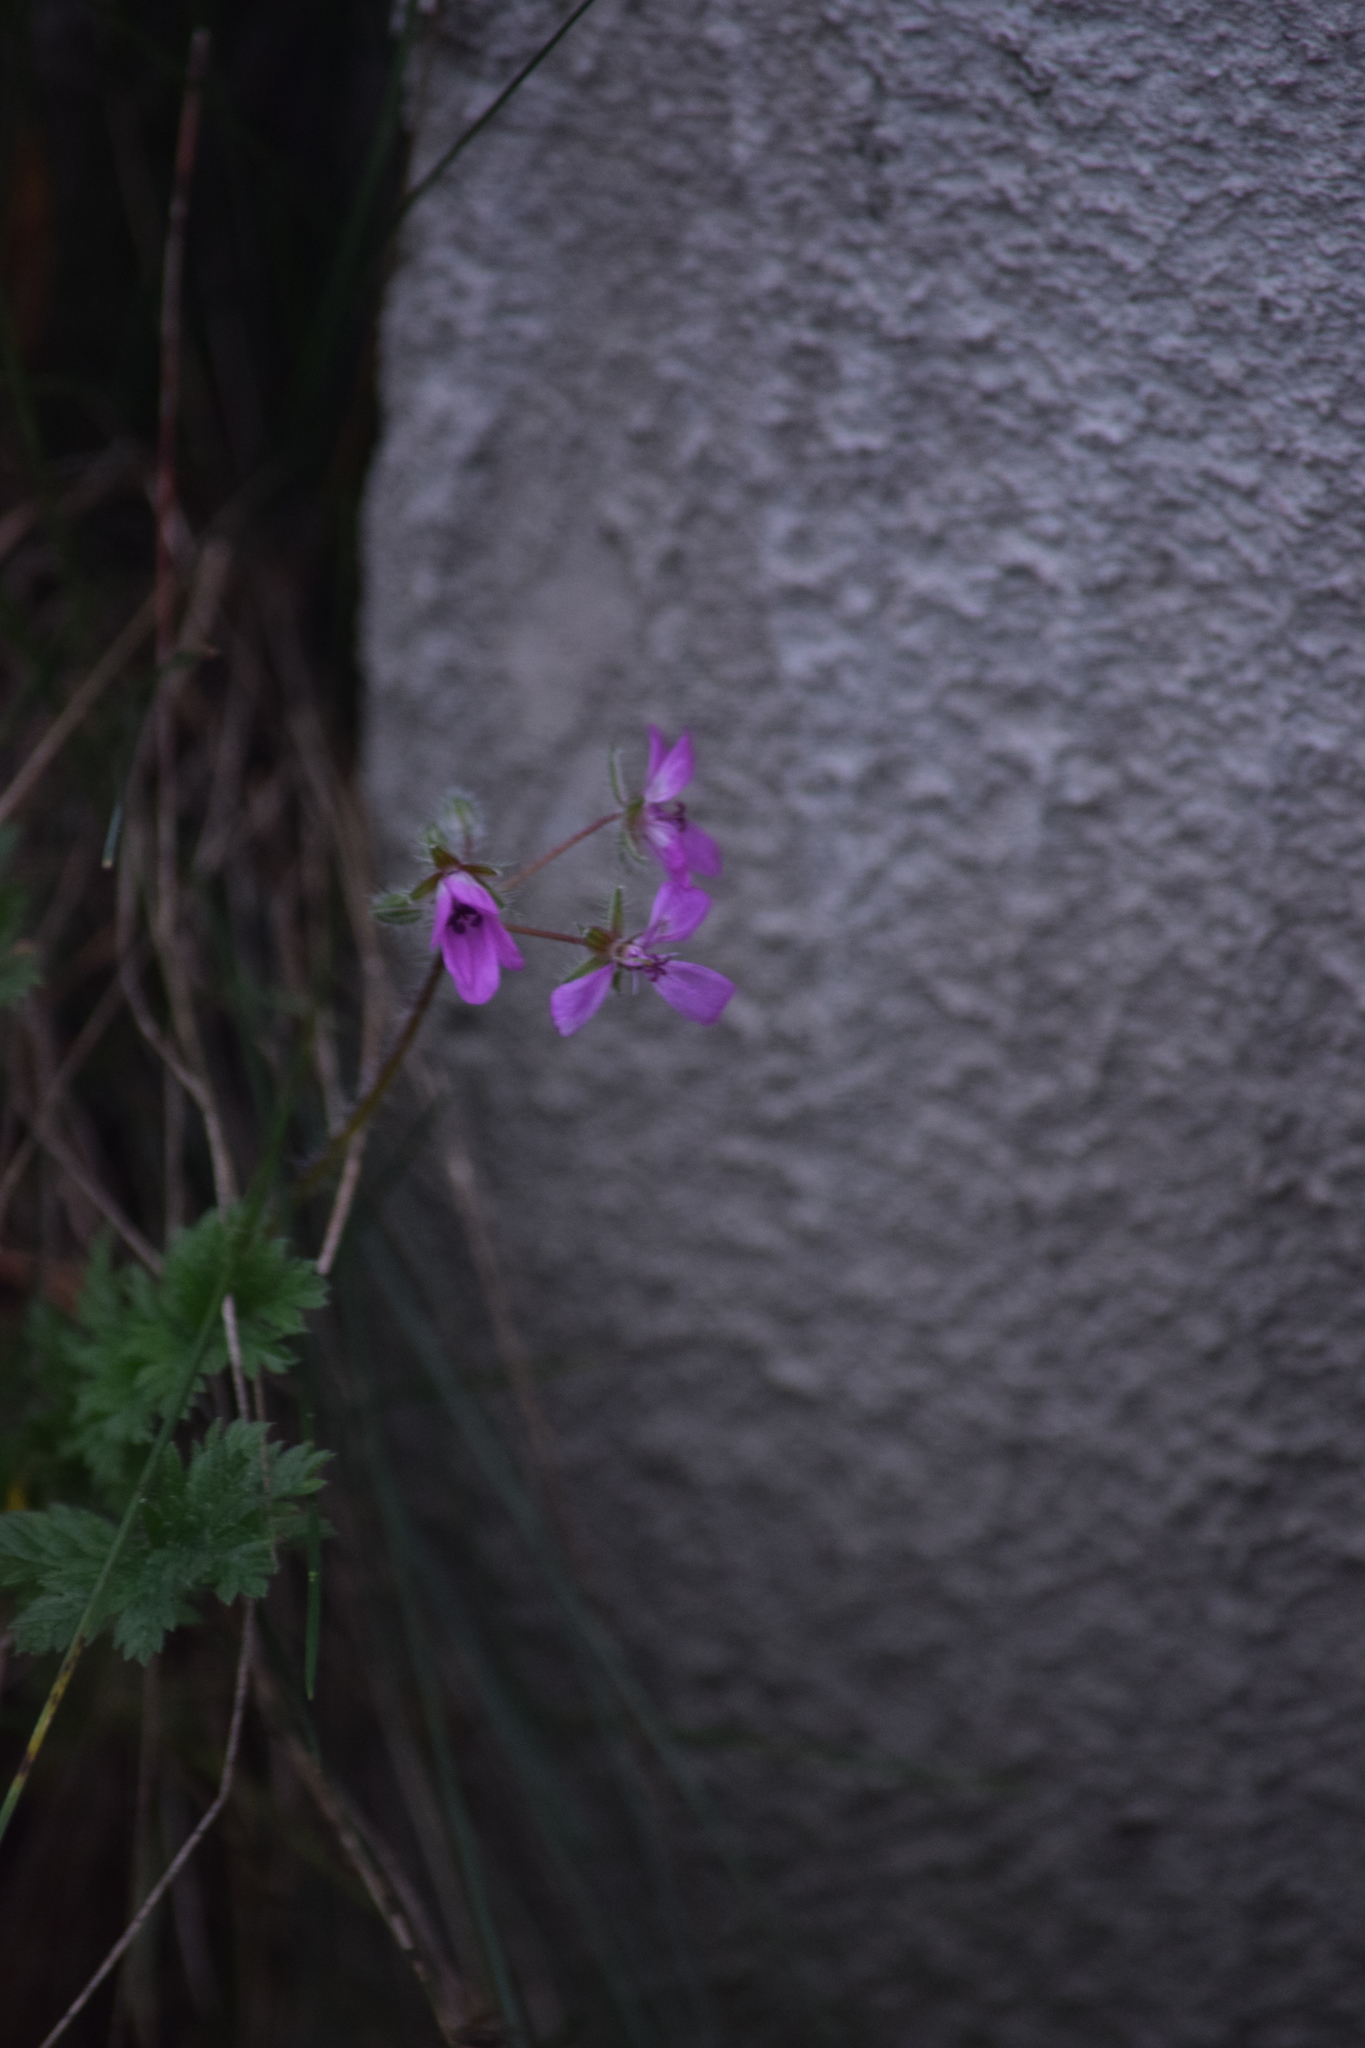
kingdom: Plantae
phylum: Tracheophyta
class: Magnoliopsida
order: Geraniales
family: Geraniaceae
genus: Erodium
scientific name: Erodium cicutarium
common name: Common stork's-bill
